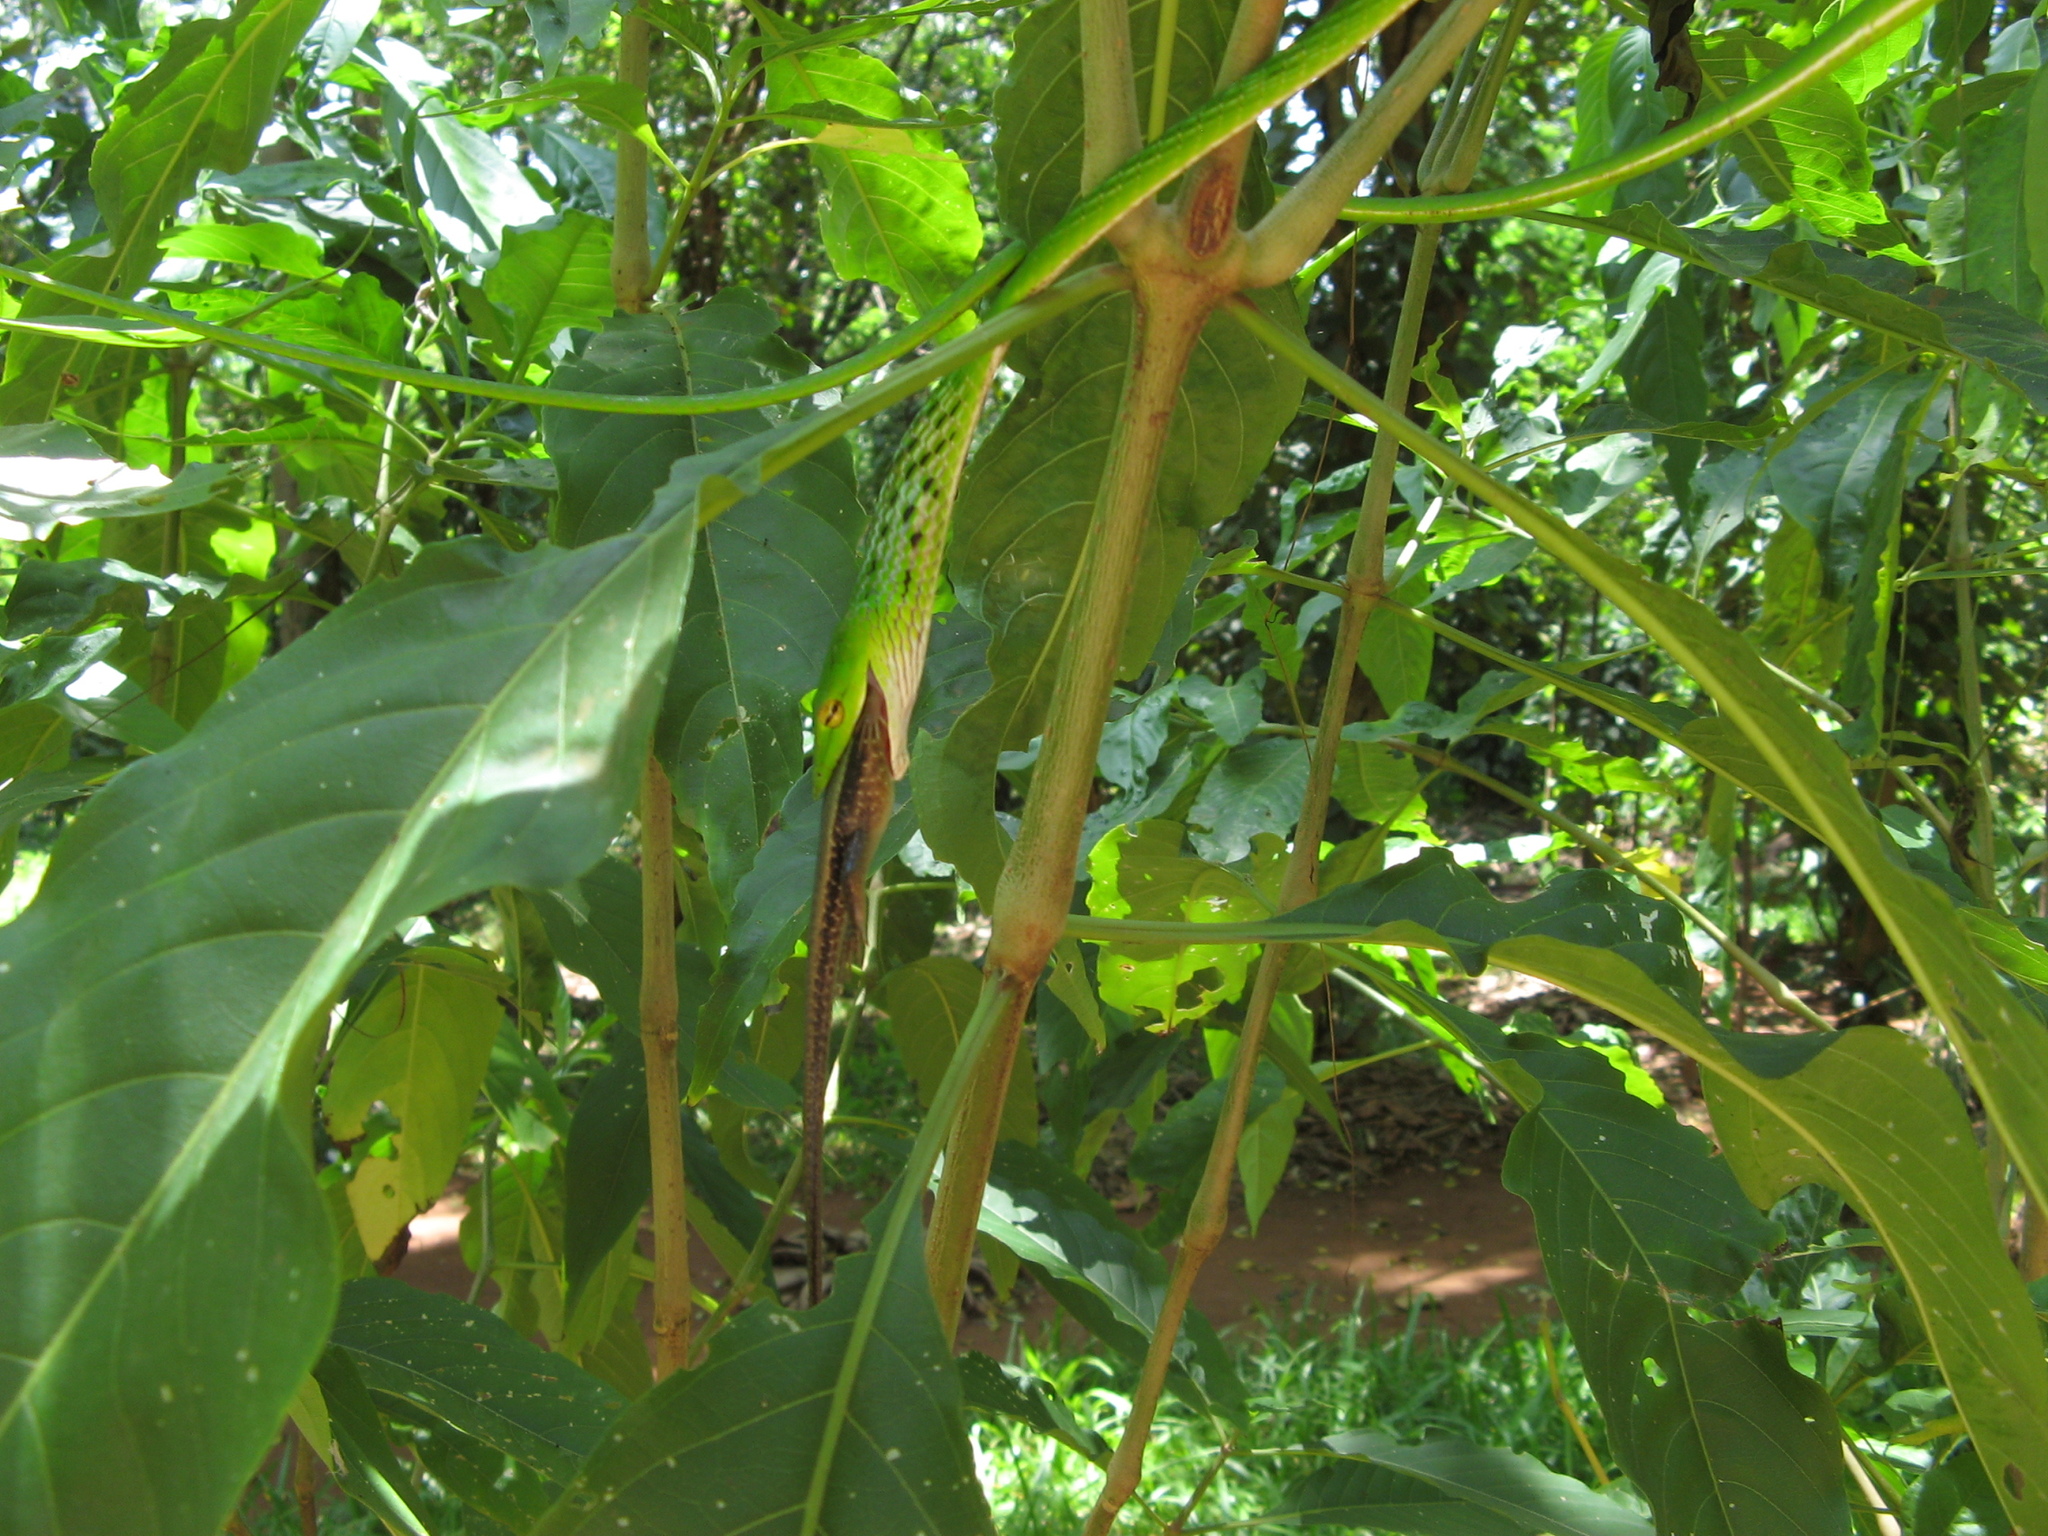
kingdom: Animalia
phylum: Chordata
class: Squamata
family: Colubridae
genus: Ahaetulla
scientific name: Ahaetulla nasuta
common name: Green vine snake
